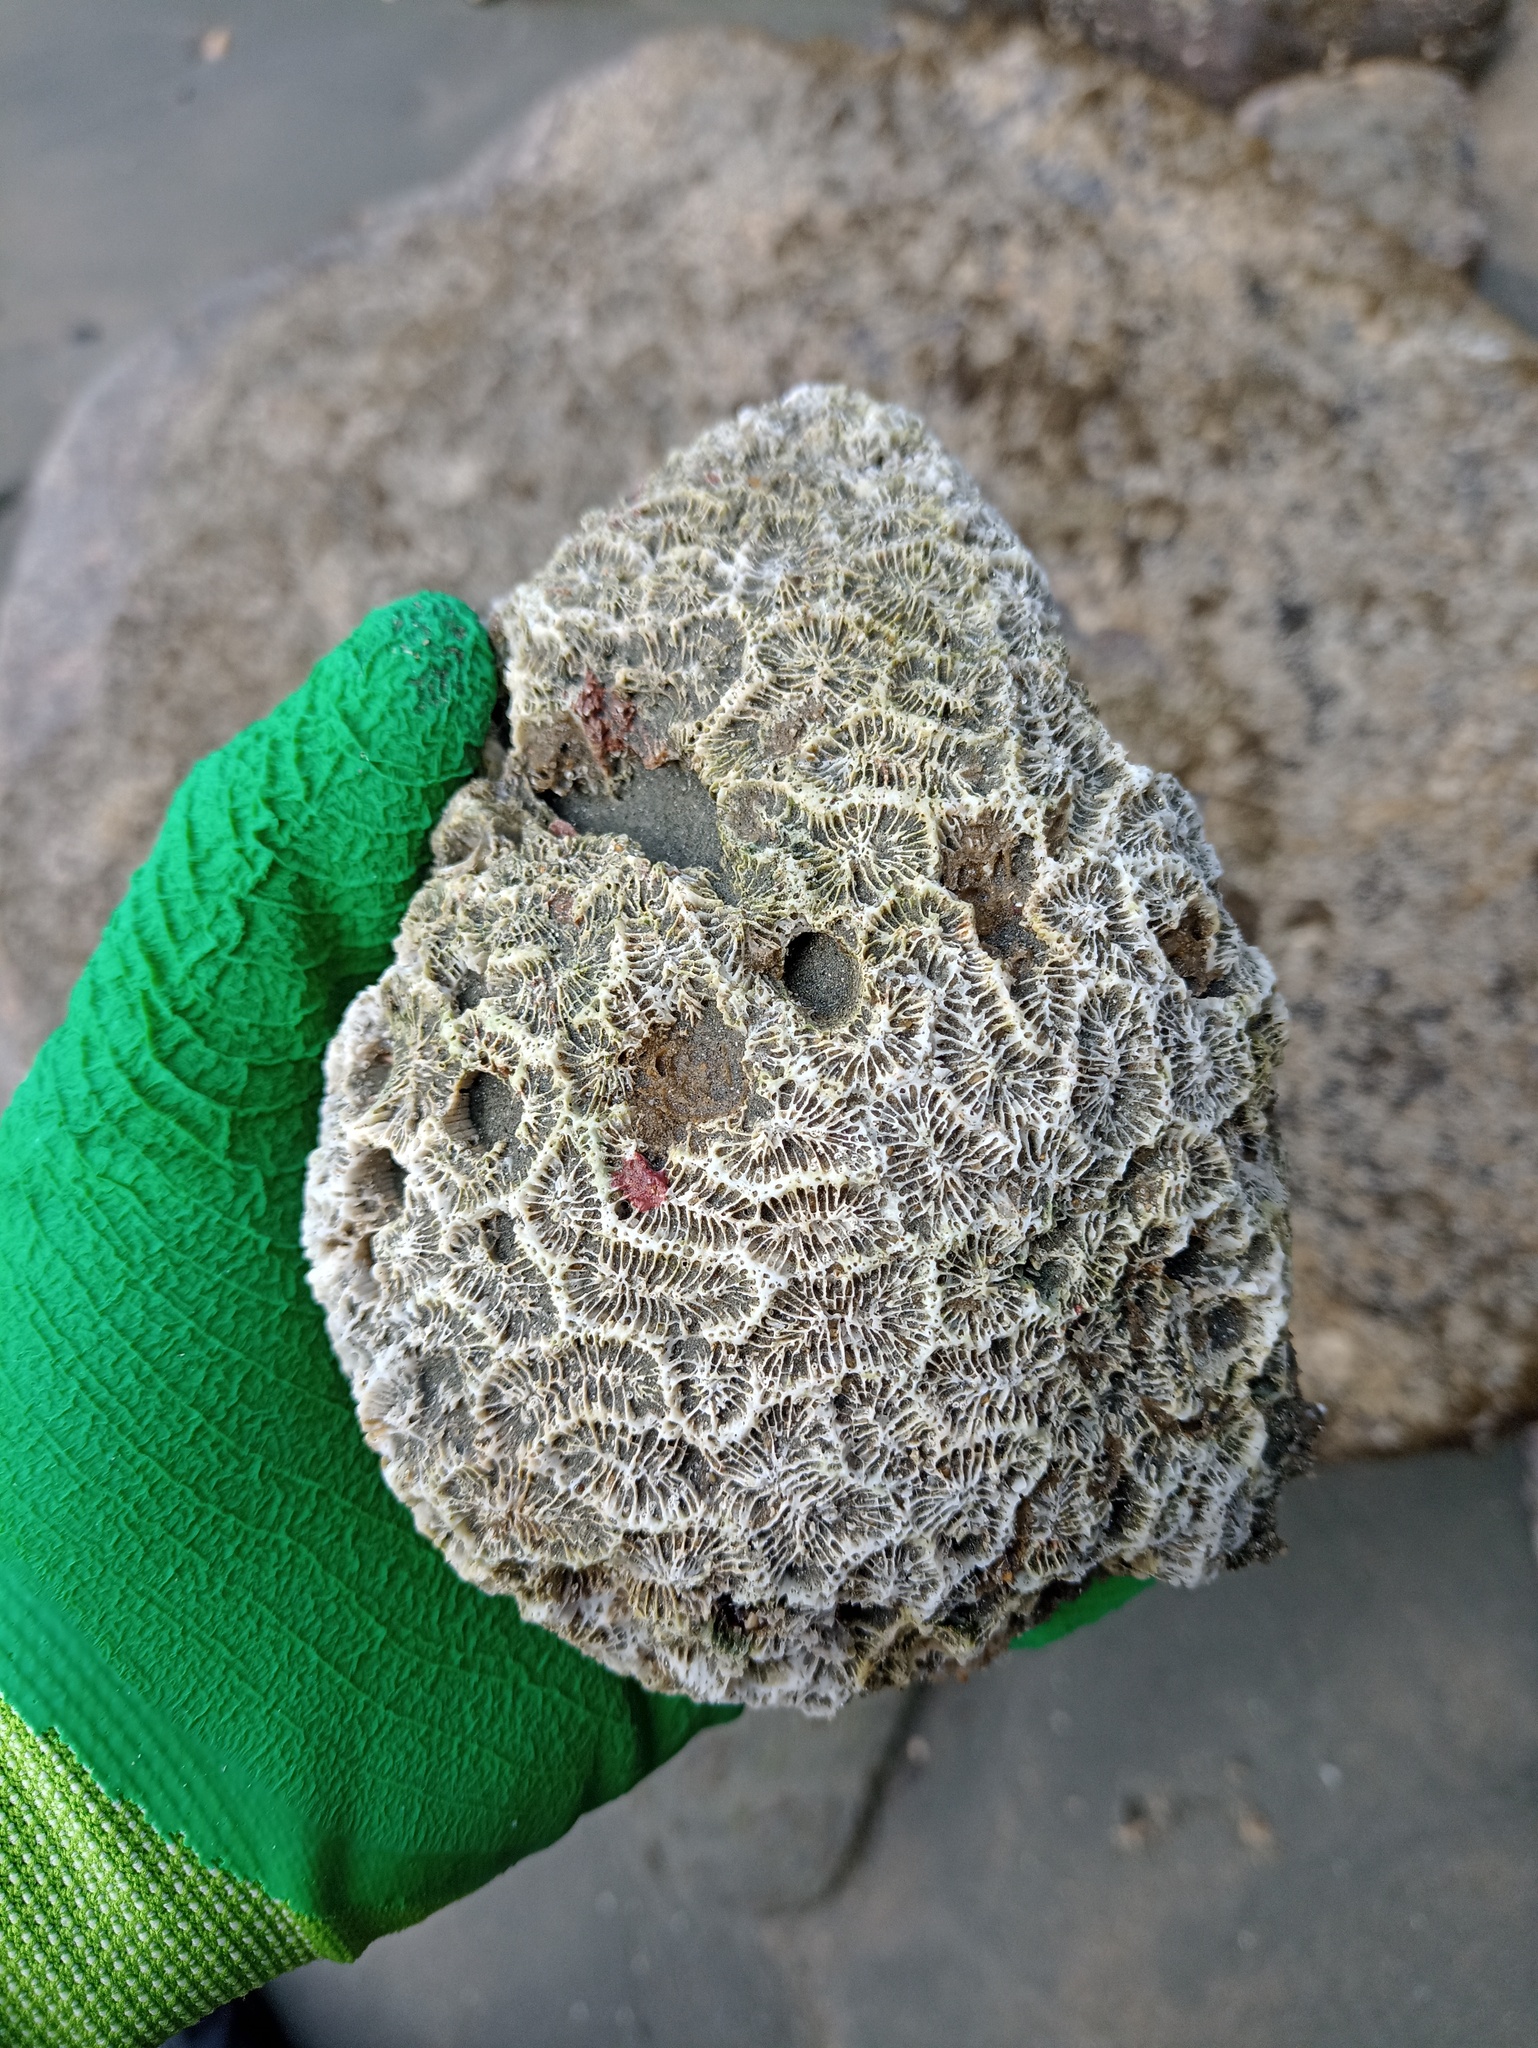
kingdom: Animalia
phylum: Cnidaria
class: Anthozoa
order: Scleractinia
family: Faviidae
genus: Mussismilia
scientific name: Mussismilia hispida
